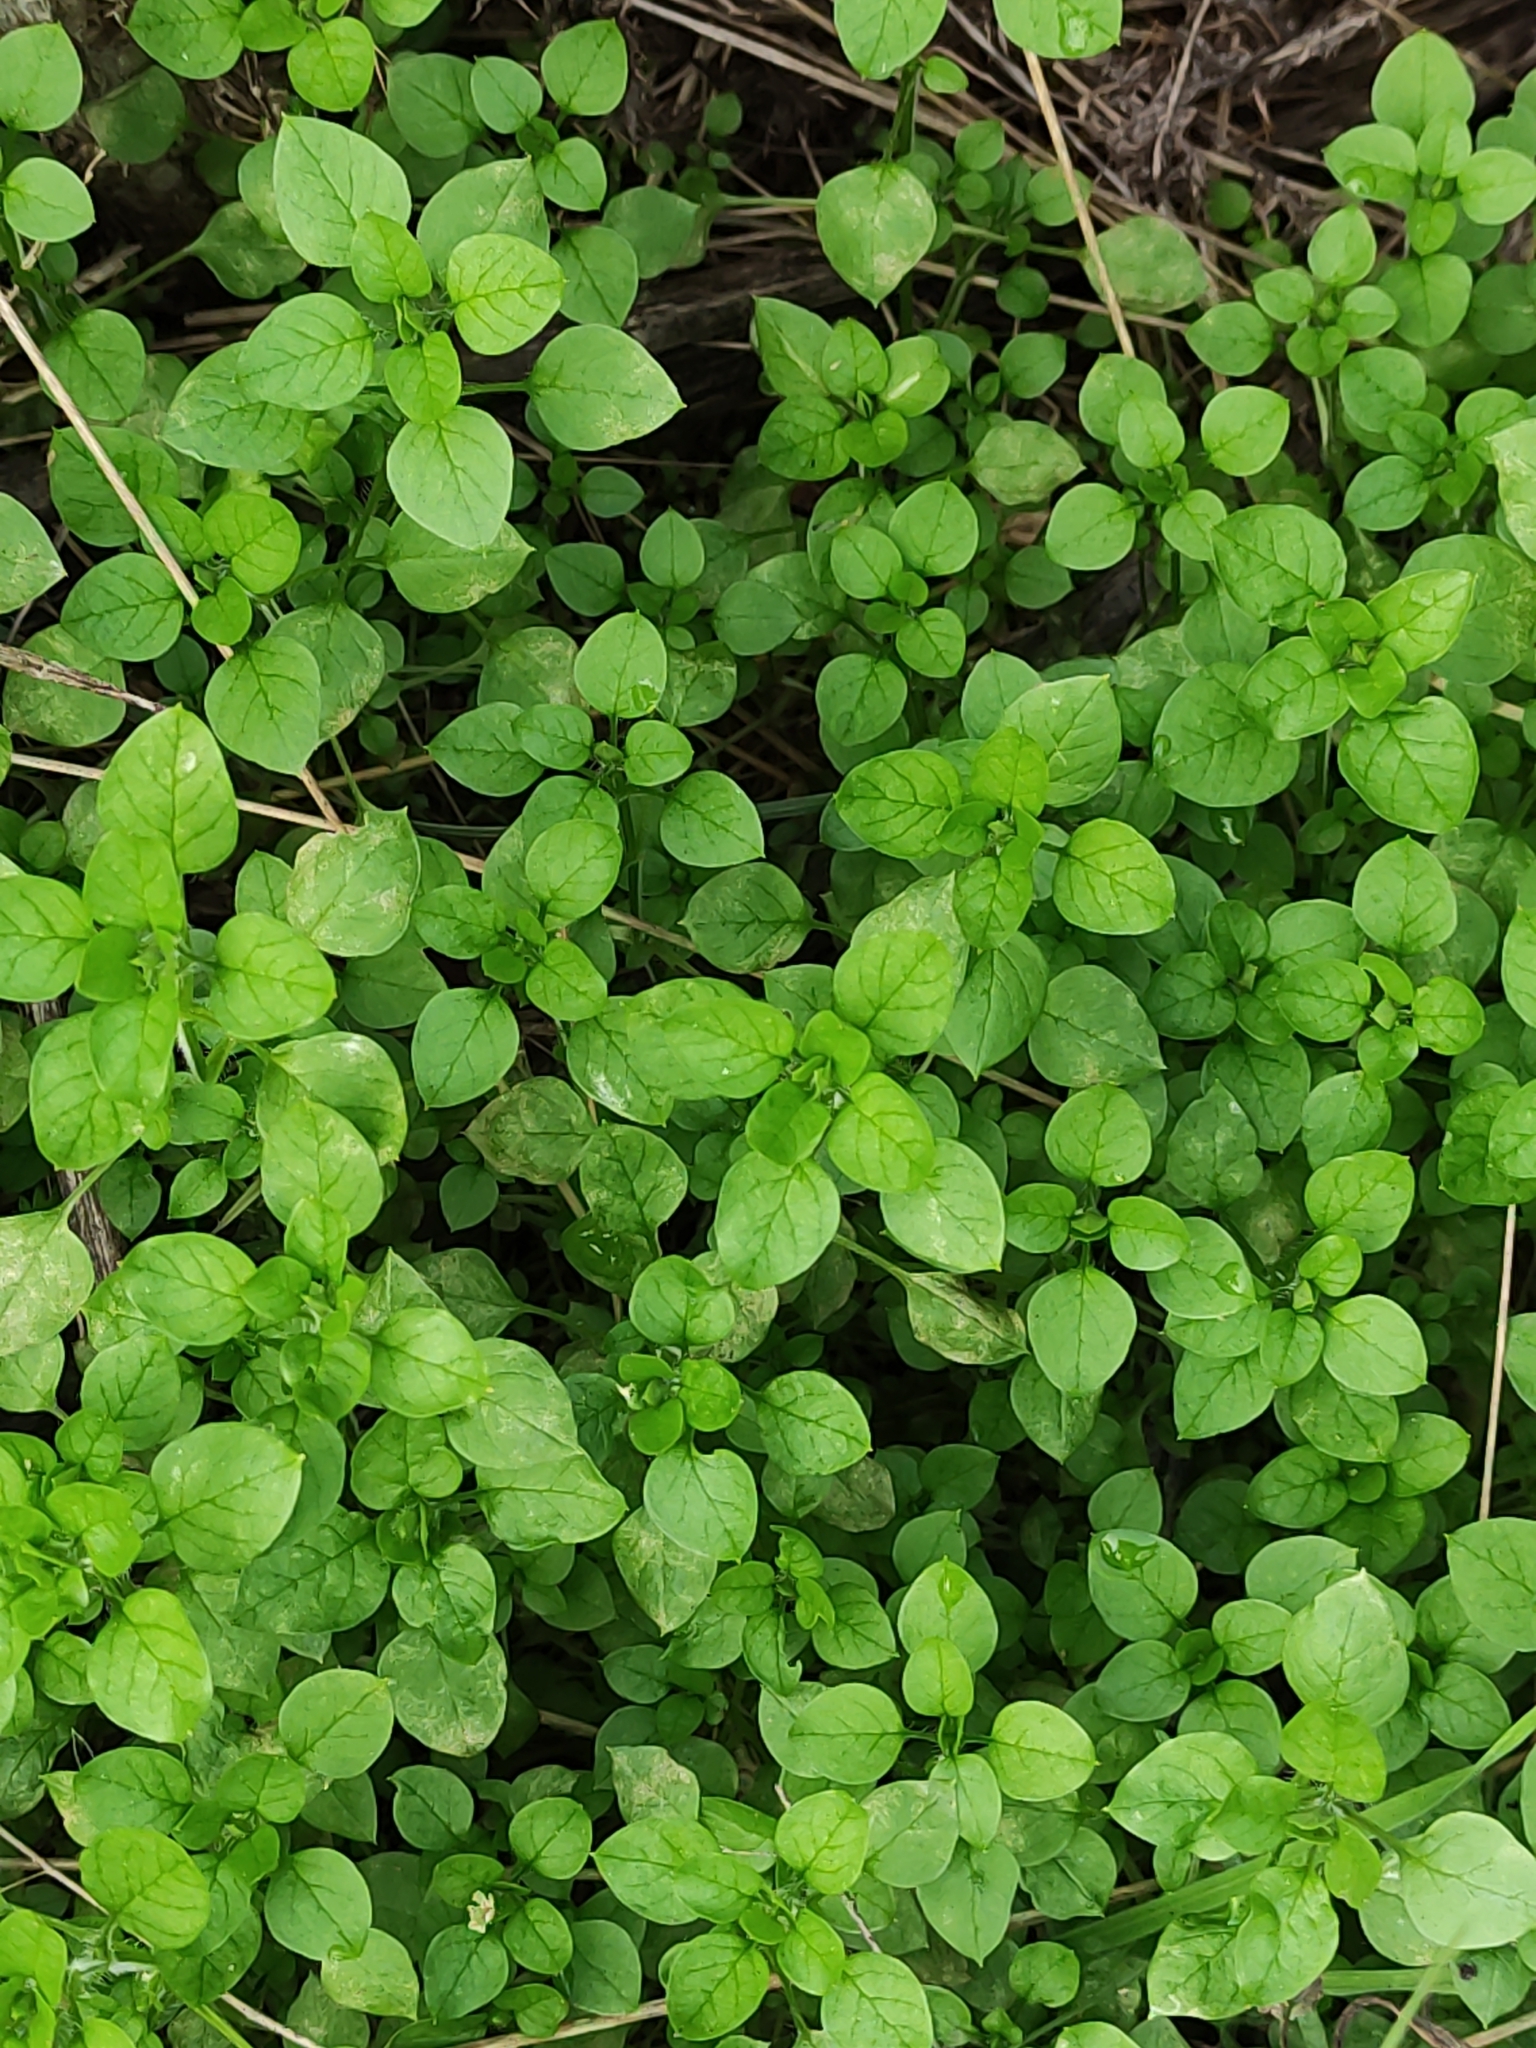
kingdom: Plantae
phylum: Tracheophyta
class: Magnoliopsida
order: Caryophyllales
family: Caryophyllaceae
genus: Stellaria
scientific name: Stellaria media
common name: Common chickweed
